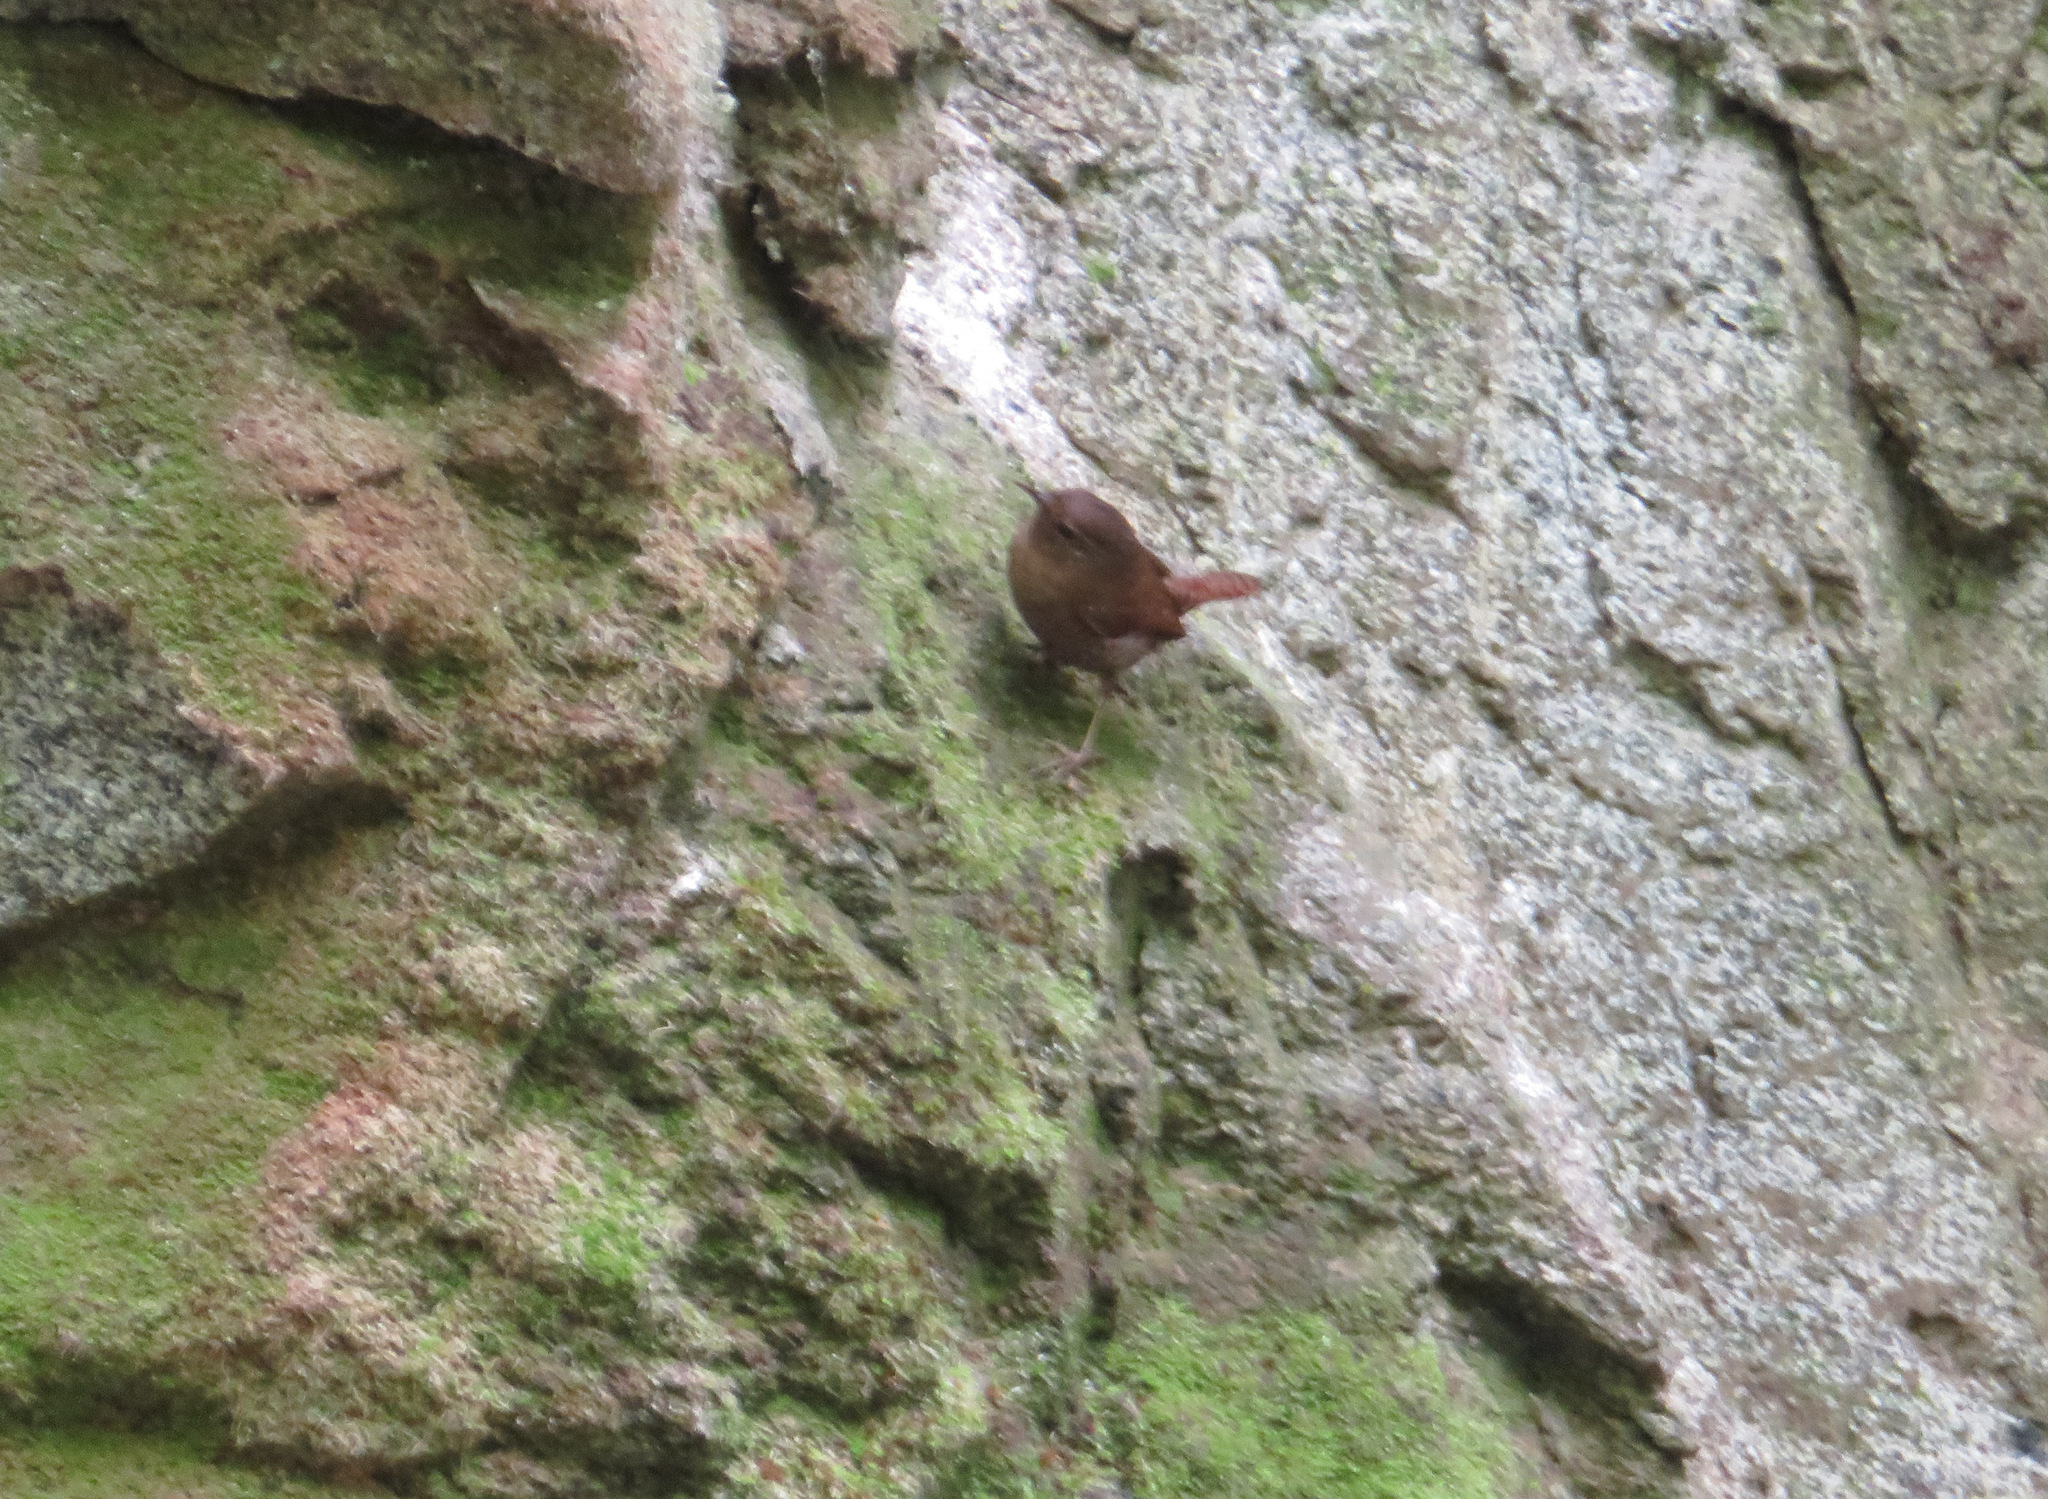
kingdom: Animalia
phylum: Chordata
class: Aves
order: Passeriformes
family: Troglodytidae
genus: Troglodytes
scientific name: Troglodytes troglodytes
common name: Eurasian wren
